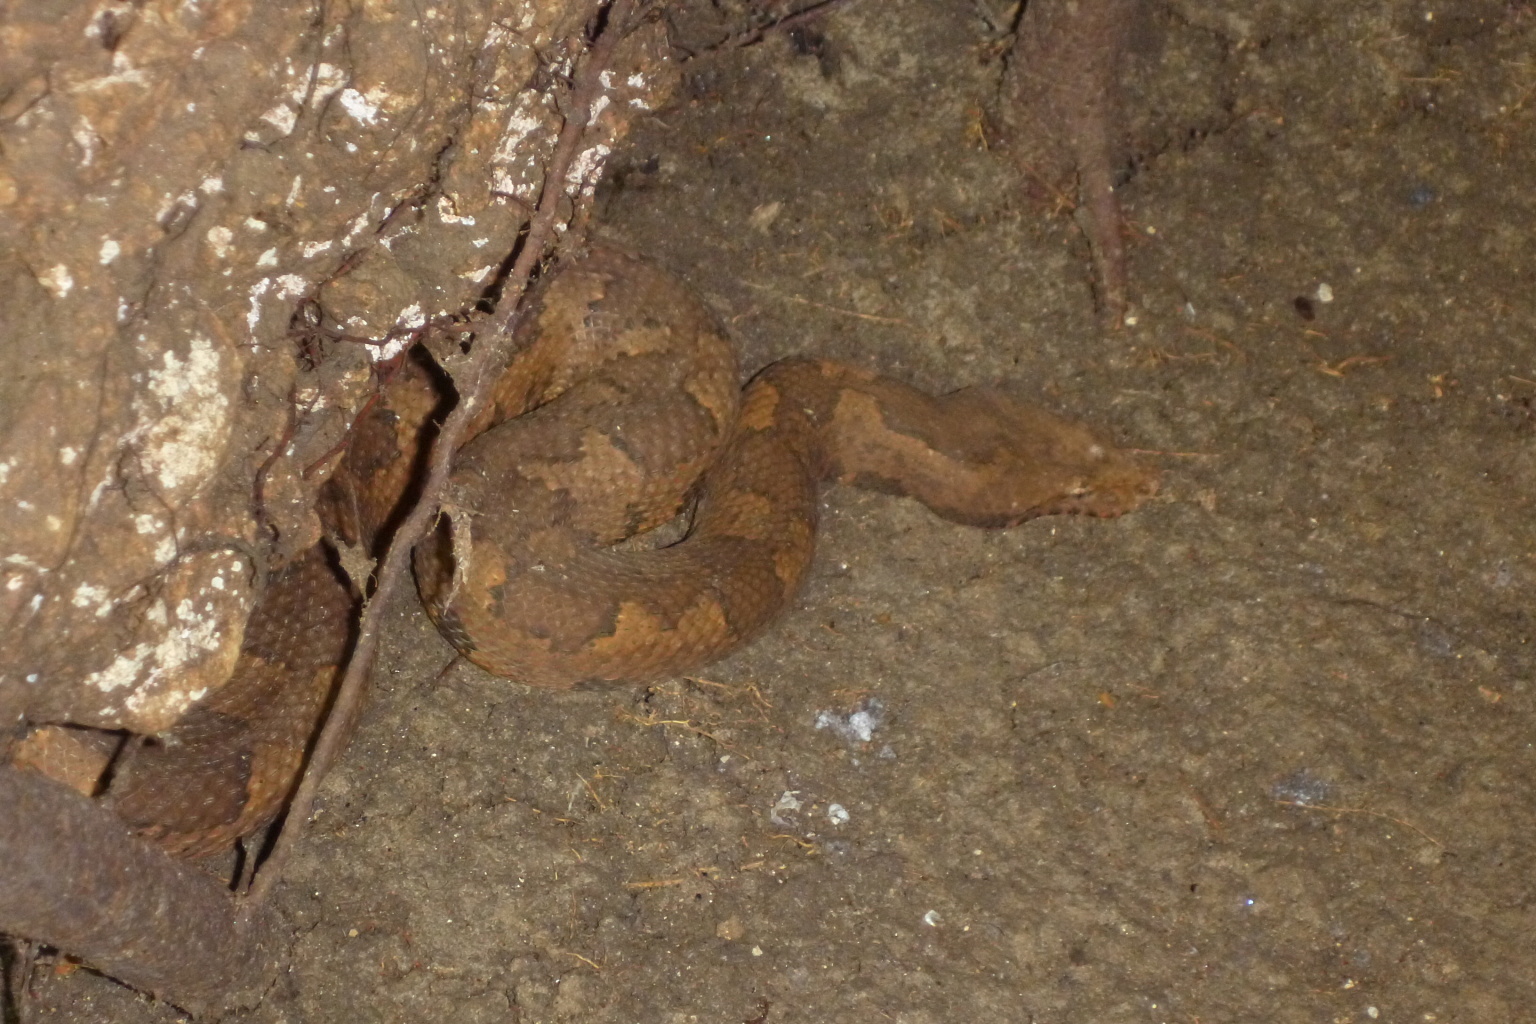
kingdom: Animalia
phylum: Chordata
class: Squamata
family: Boidae
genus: Candoia
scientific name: Candoia aspera
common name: New guinea ground boa
